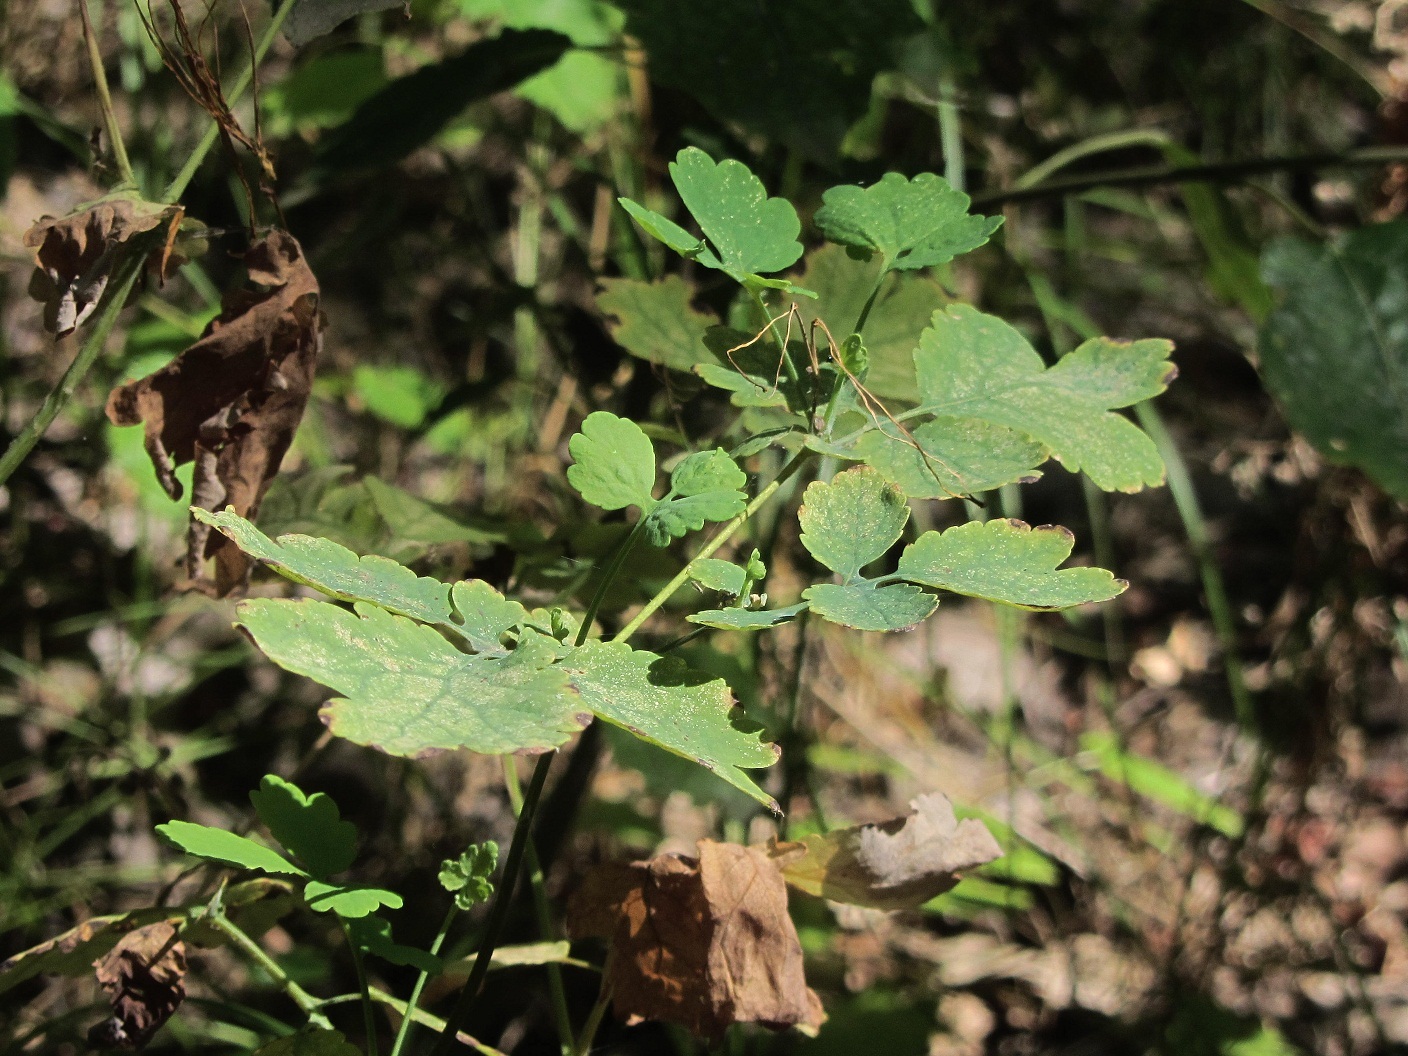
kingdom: Plantae
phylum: Tracheophyta
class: Magnoliopsida
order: Ranunculales
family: Papaveraceae
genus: Chelidonium
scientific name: Chelidonium majus
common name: Greater celandine
